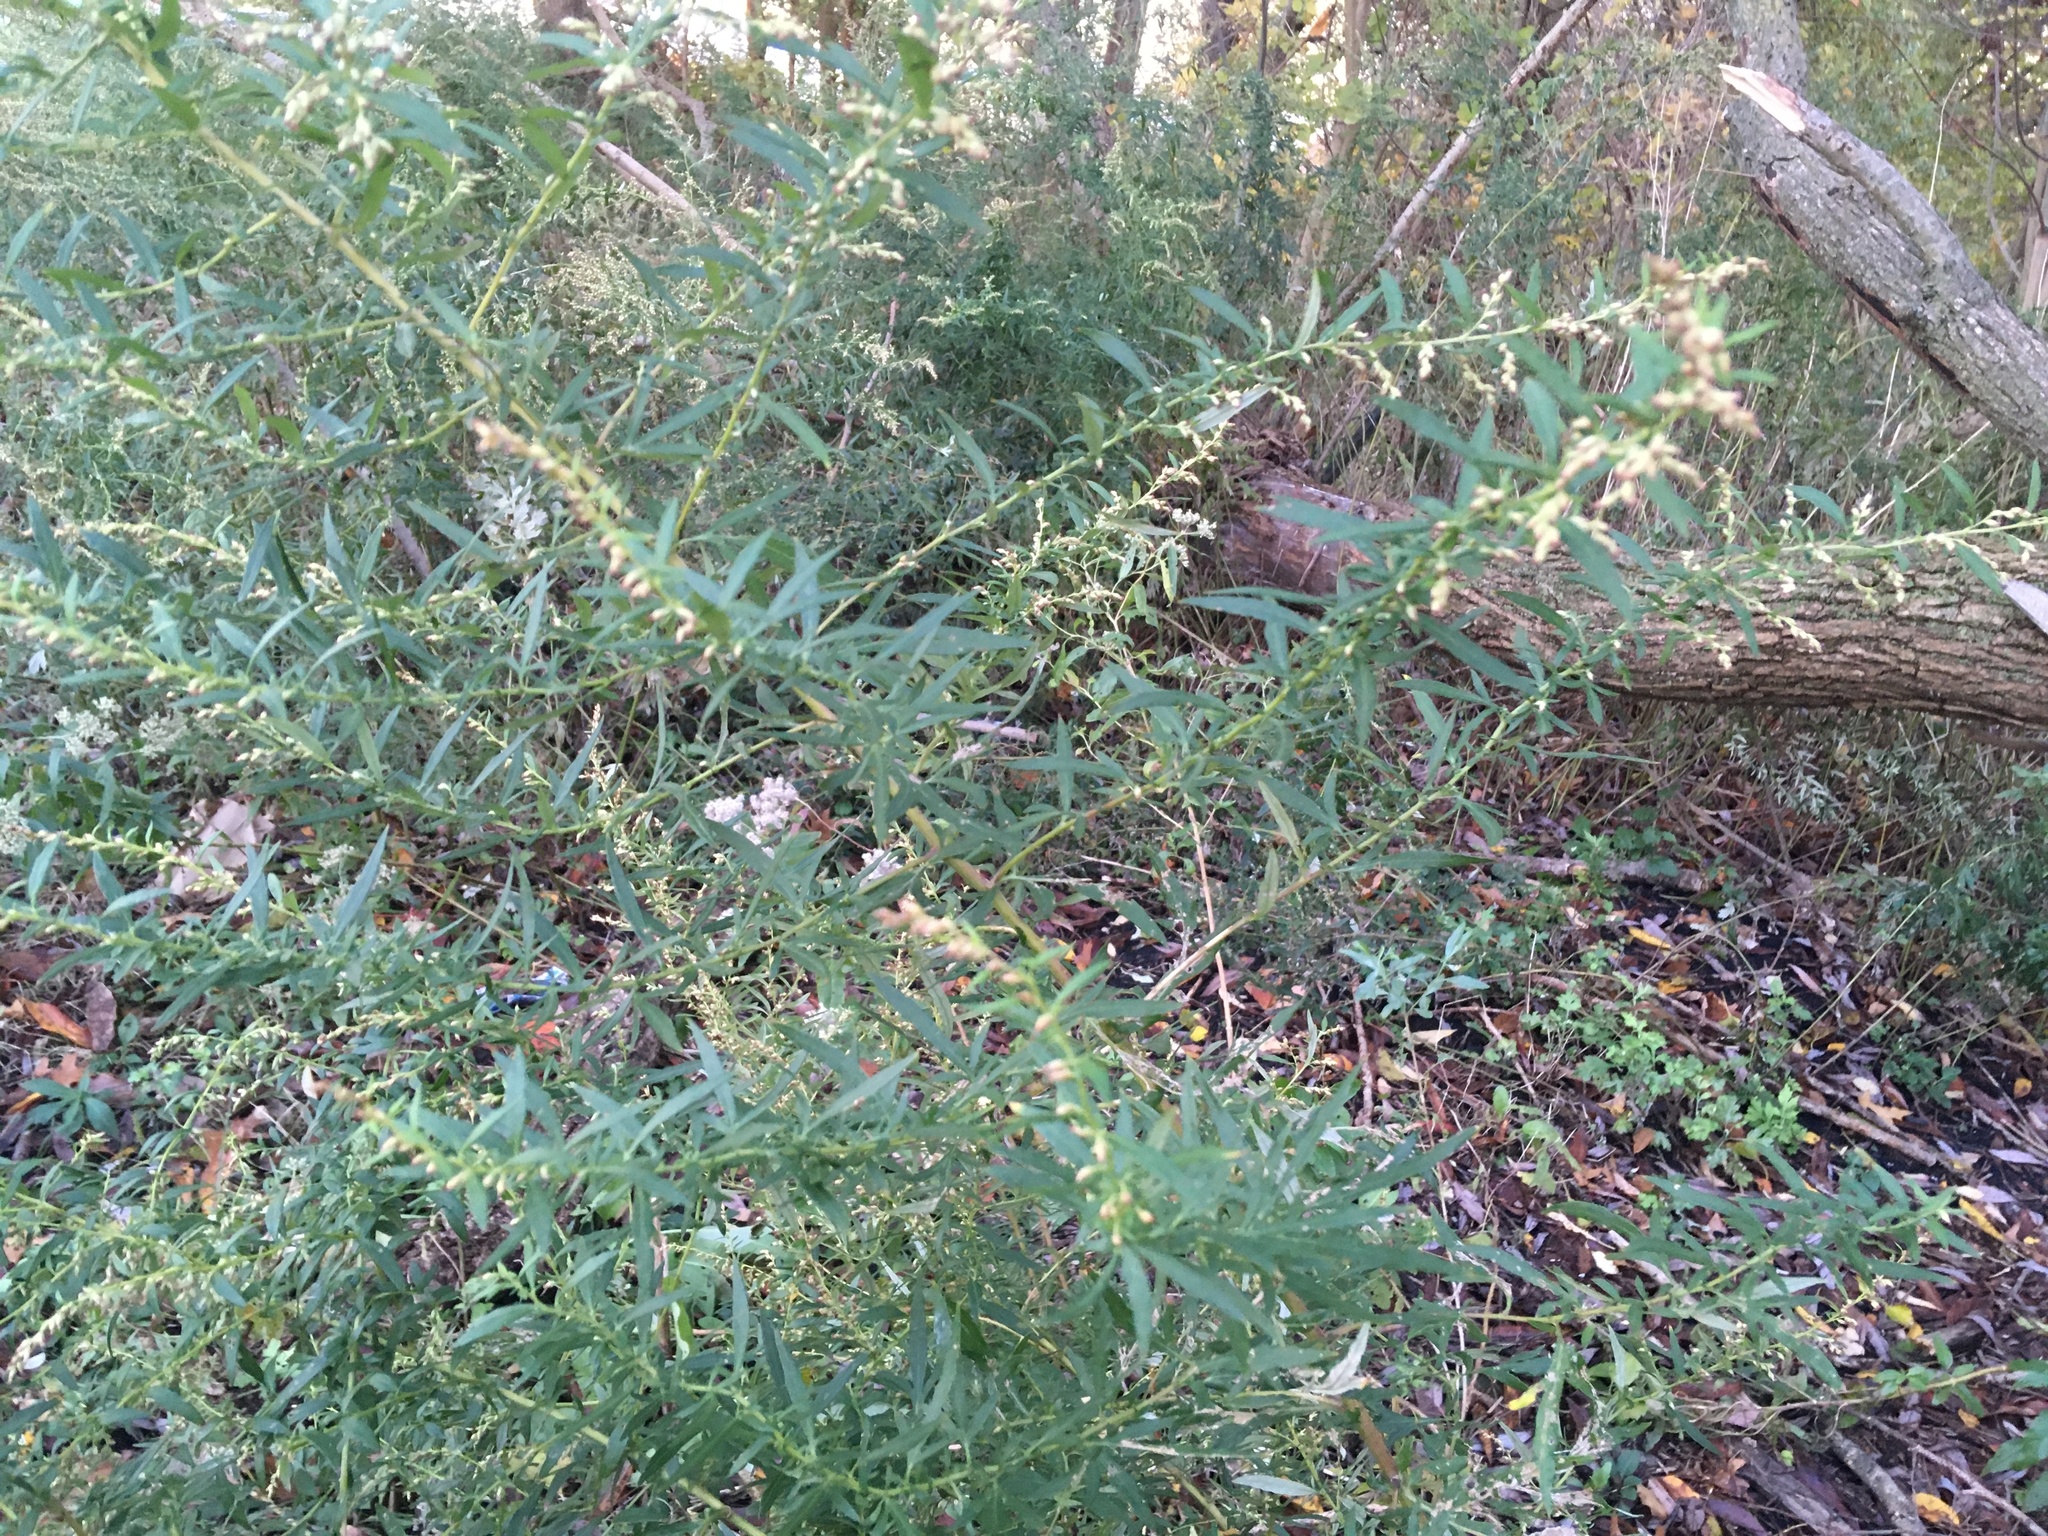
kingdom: Plantae
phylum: Tracheophyta
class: Magnoliopsida
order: Asterales
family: Asteraceae
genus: Artemisia
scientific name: Artemisia vulgaris
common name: Mugwort
